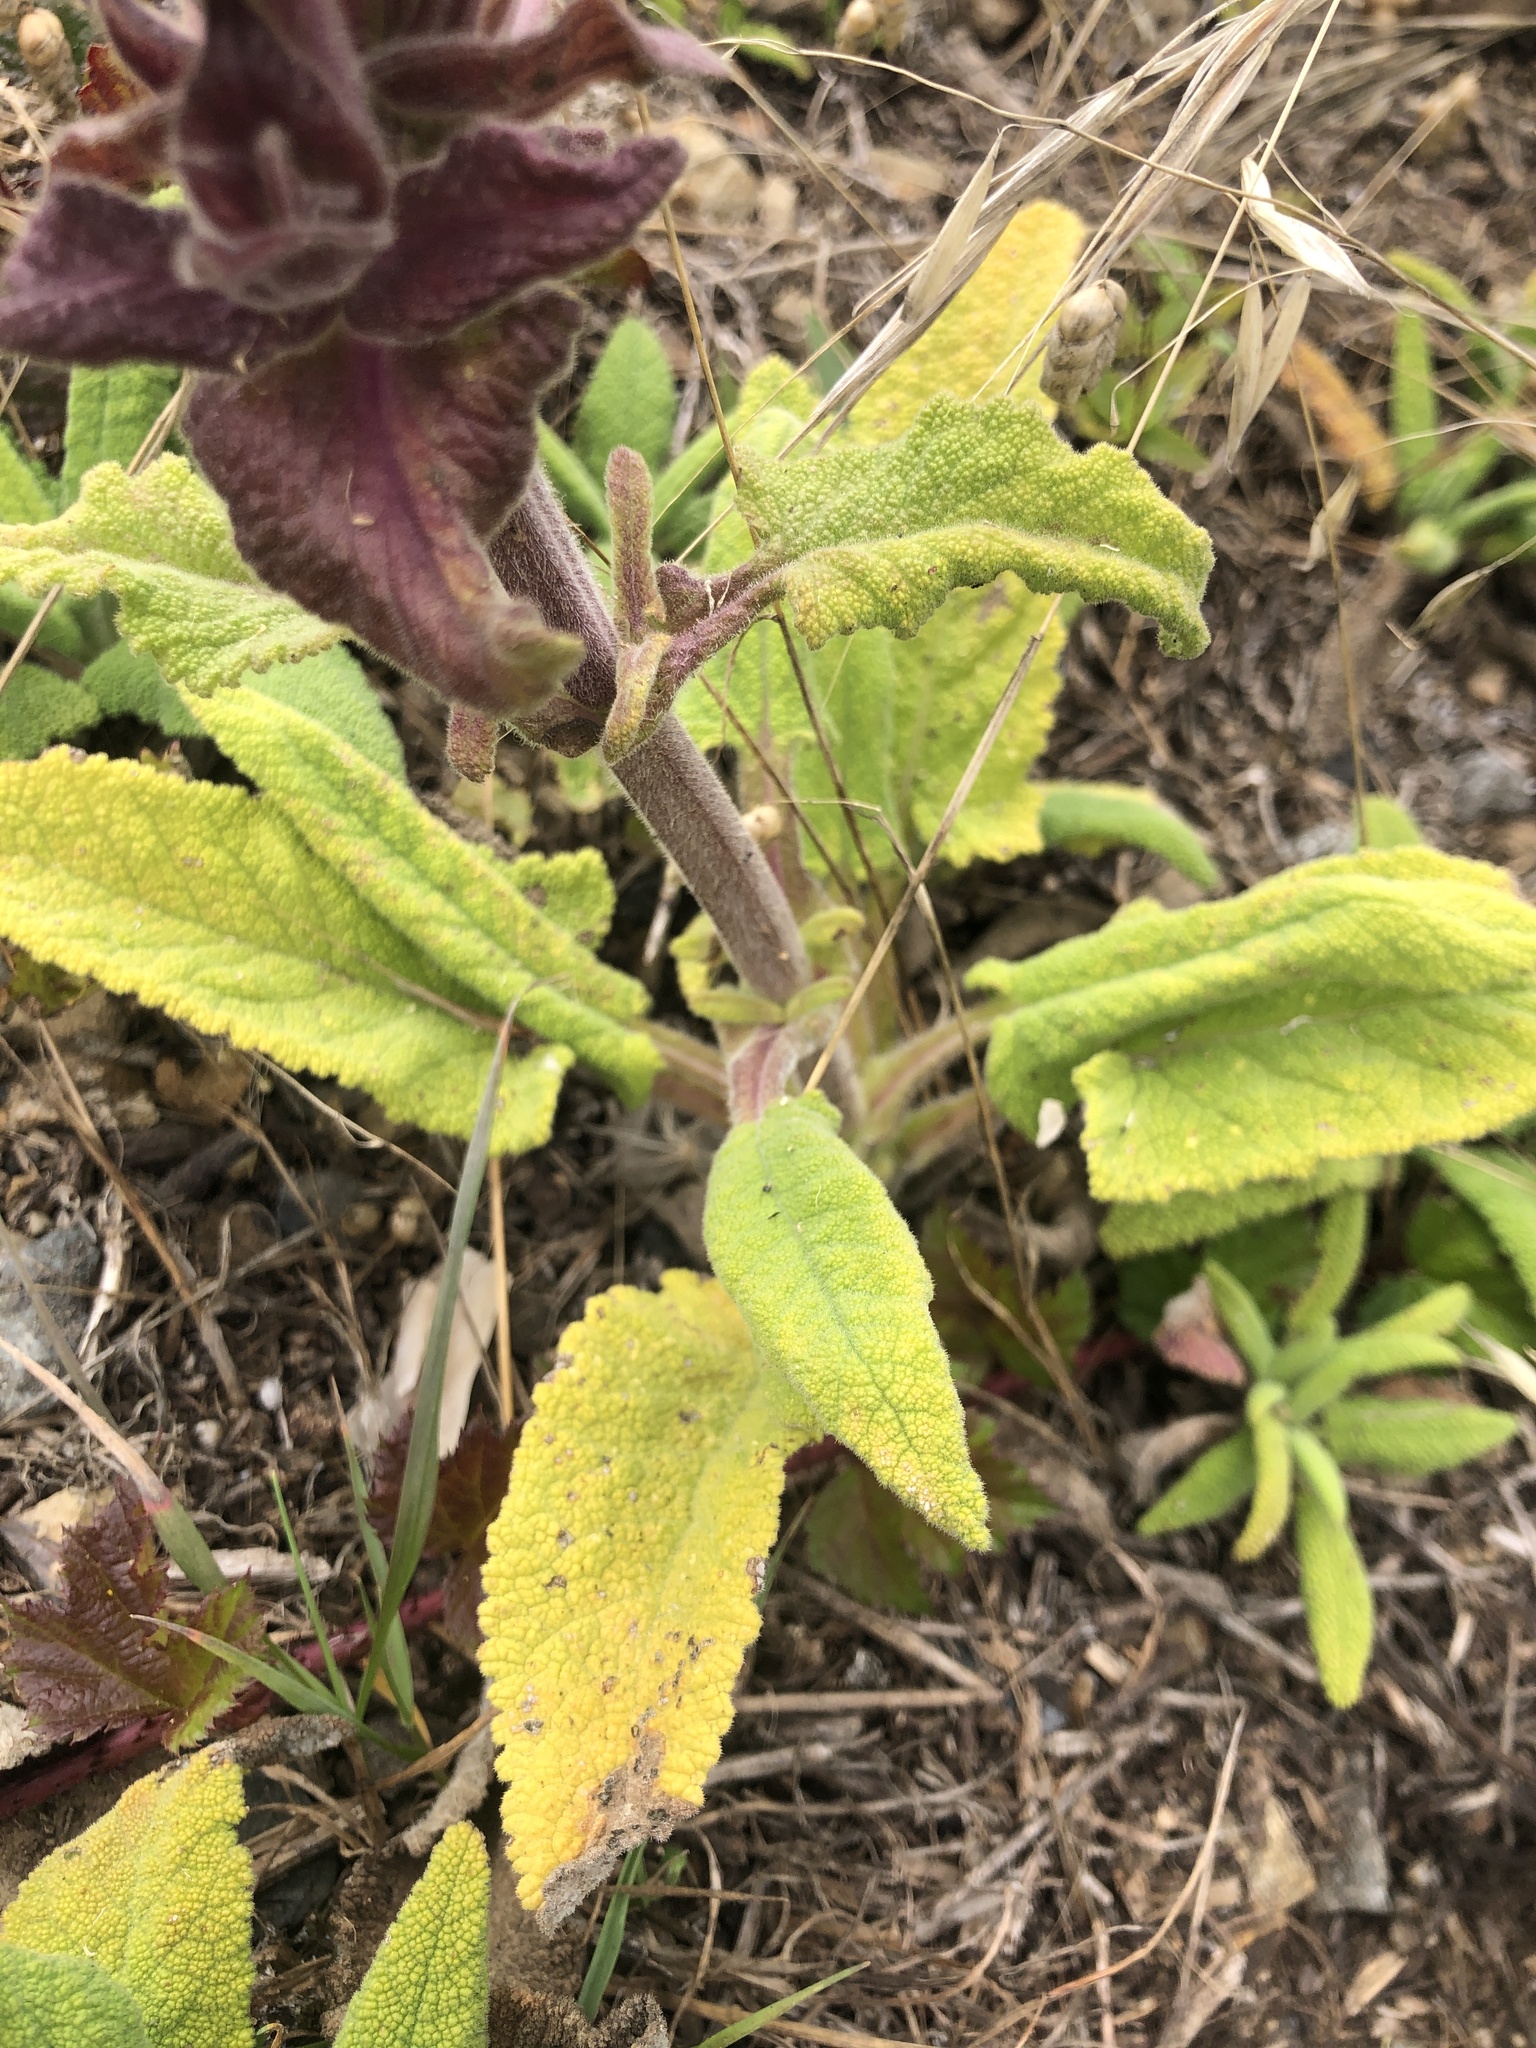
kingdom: Plantae
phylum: Tracheophyta
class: Magnoliopsida
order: Lamiales
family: Lamiaceae
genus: Salvia
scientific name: Salvia spathacea
